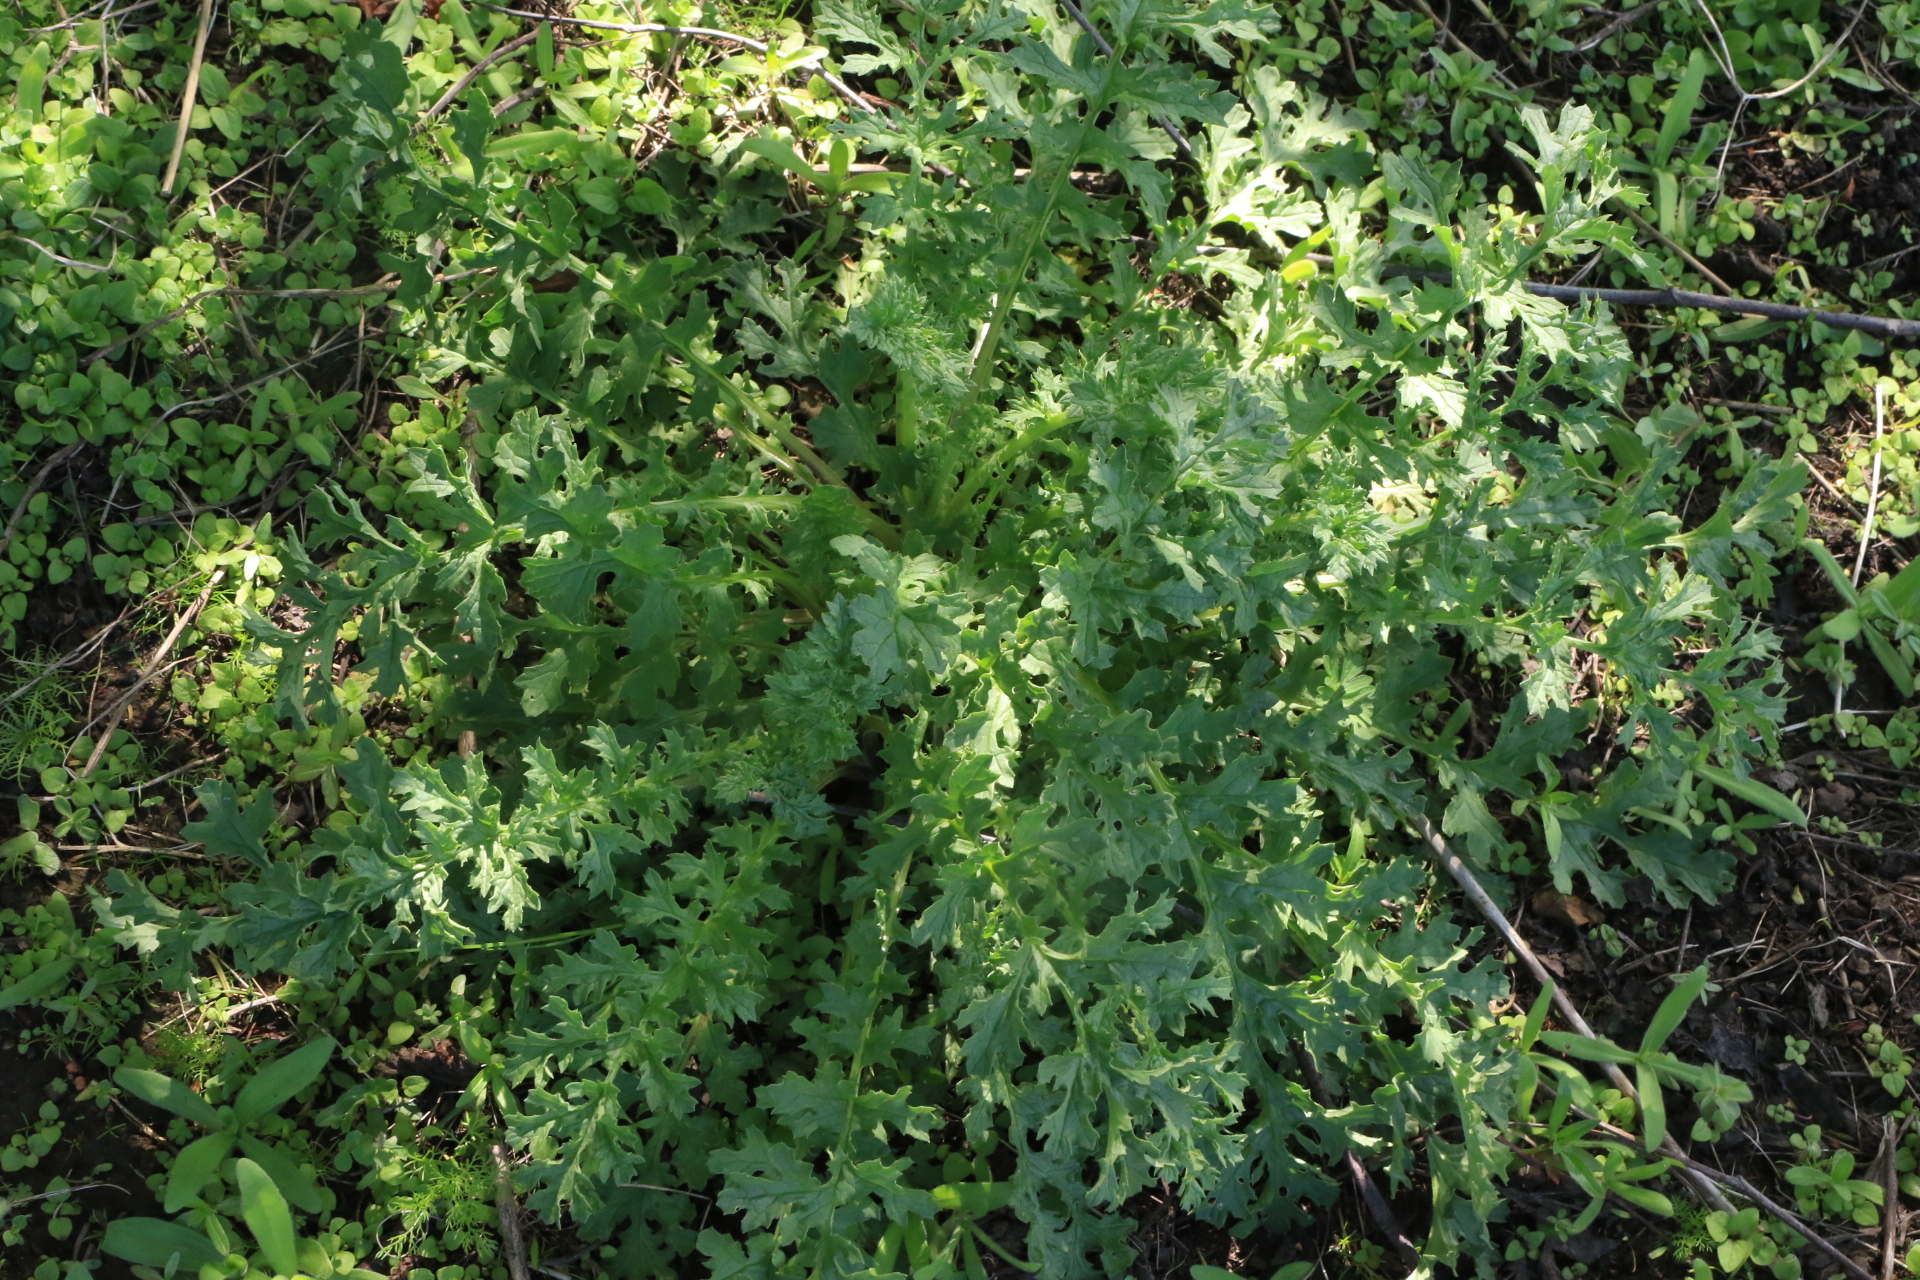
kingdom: Plantae
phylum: Tracheophyta
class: Magnoliopsida
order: Asterales
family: Asteraceae
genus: Jacobaea
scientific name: Jacobaea vulgaris
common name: Stinking willie
